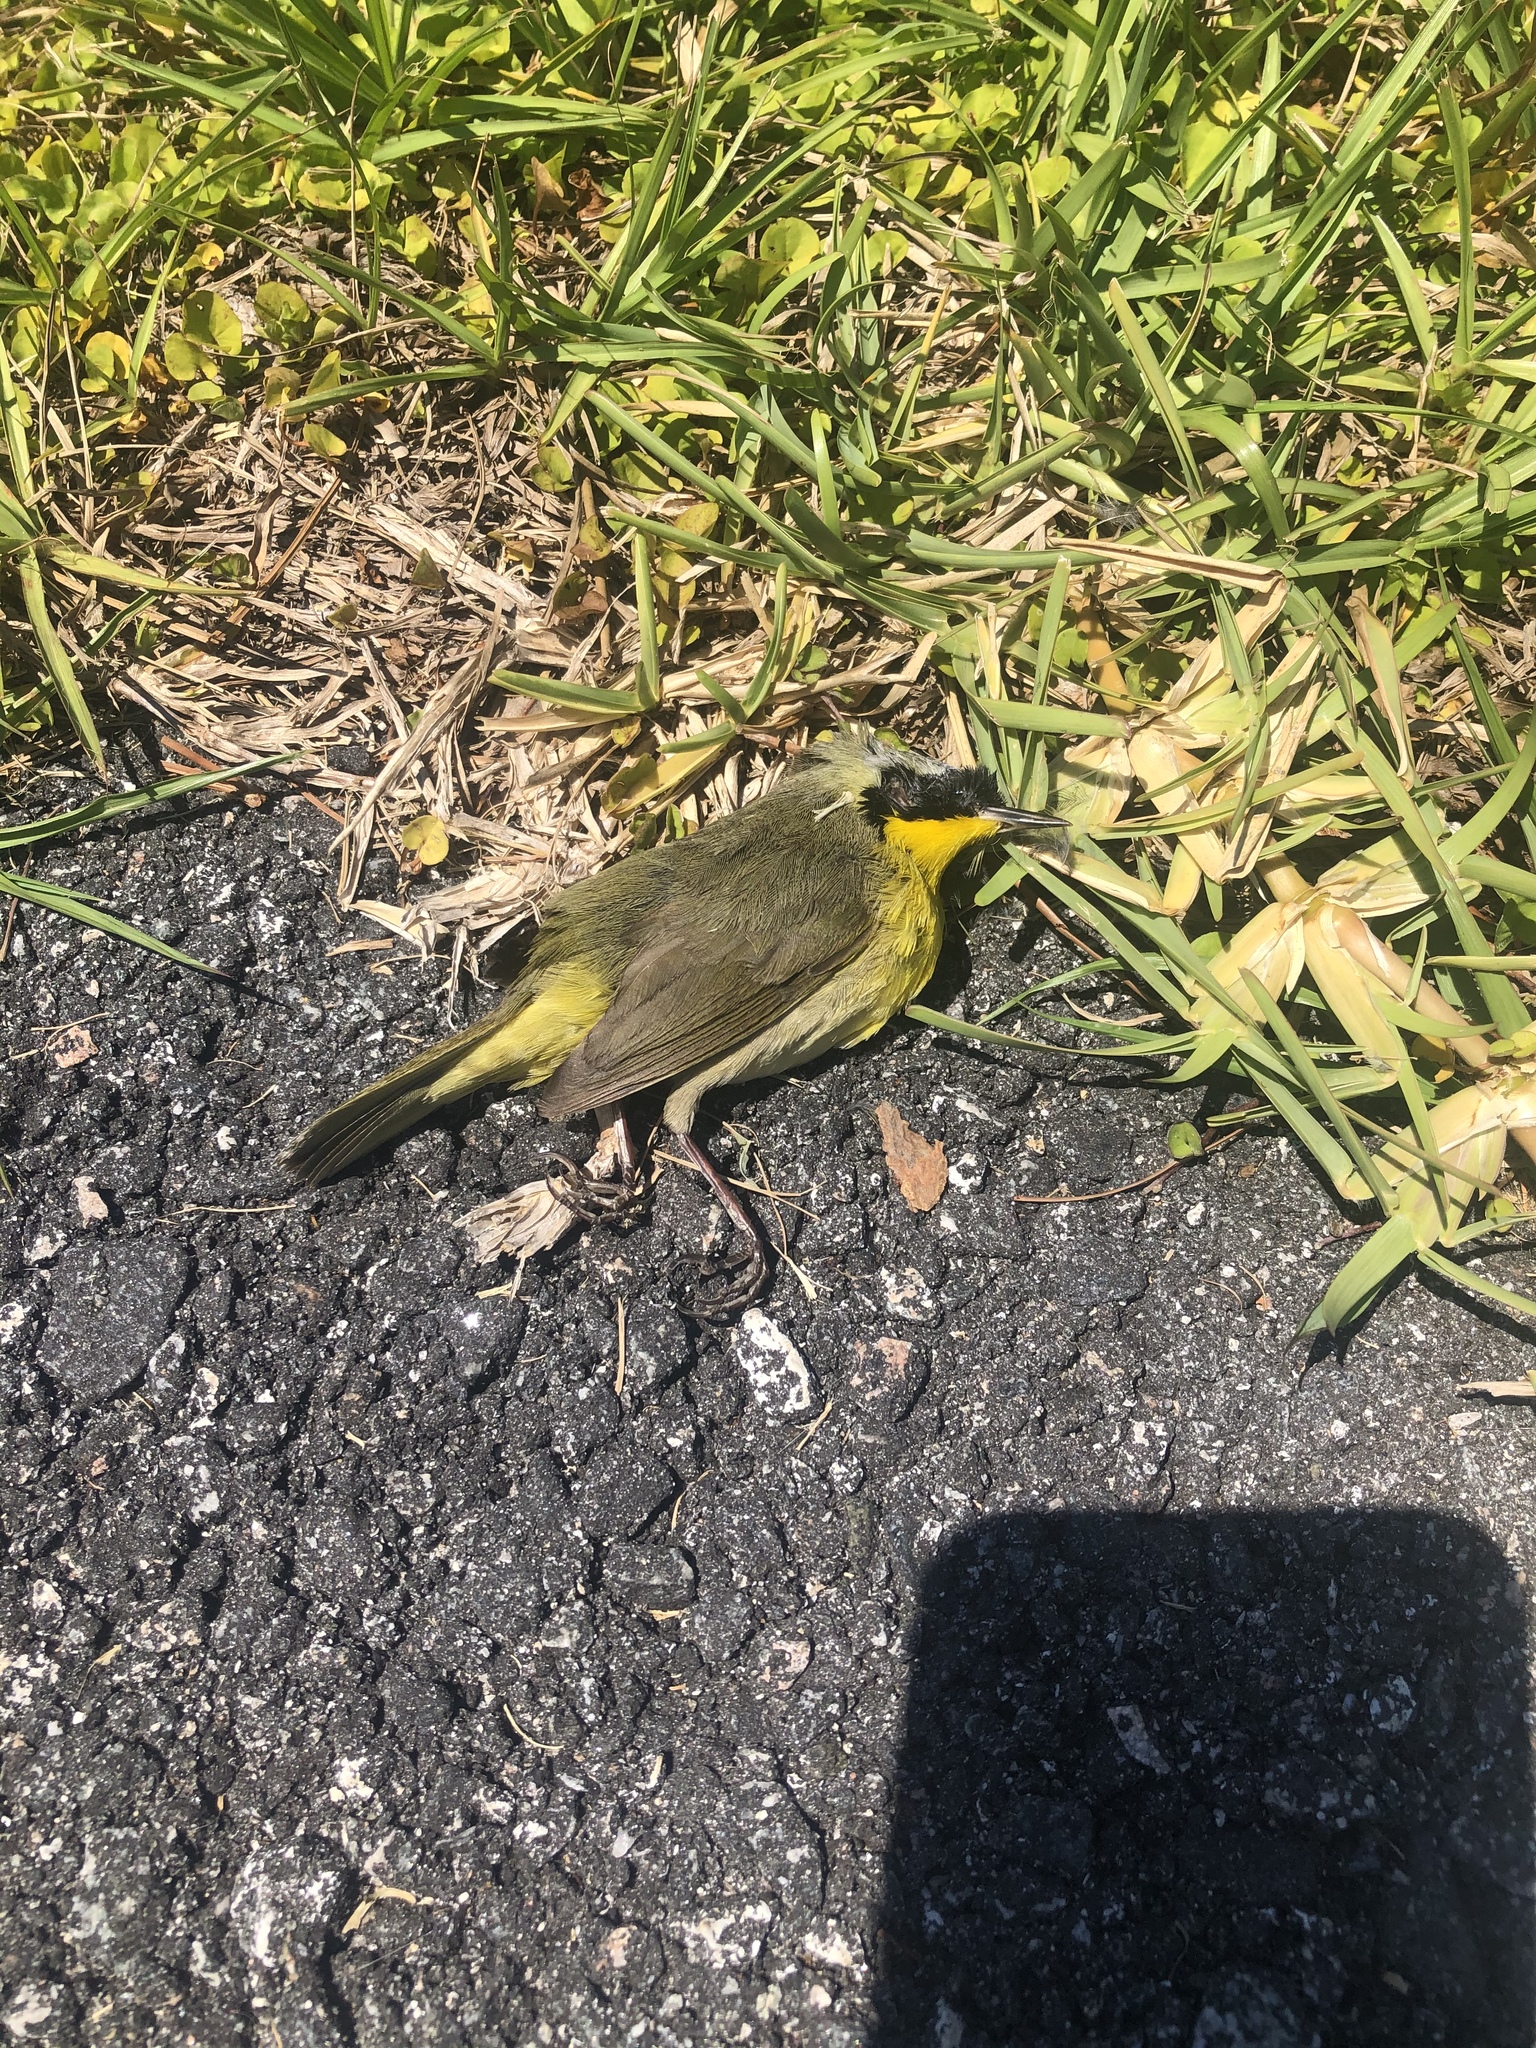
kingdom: Animalia
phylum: Chordata
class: Aves
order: Passeriformes
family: Parulidae
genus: Geothlypis
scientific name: Geothlypis trichas
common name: Common yellowthroat
